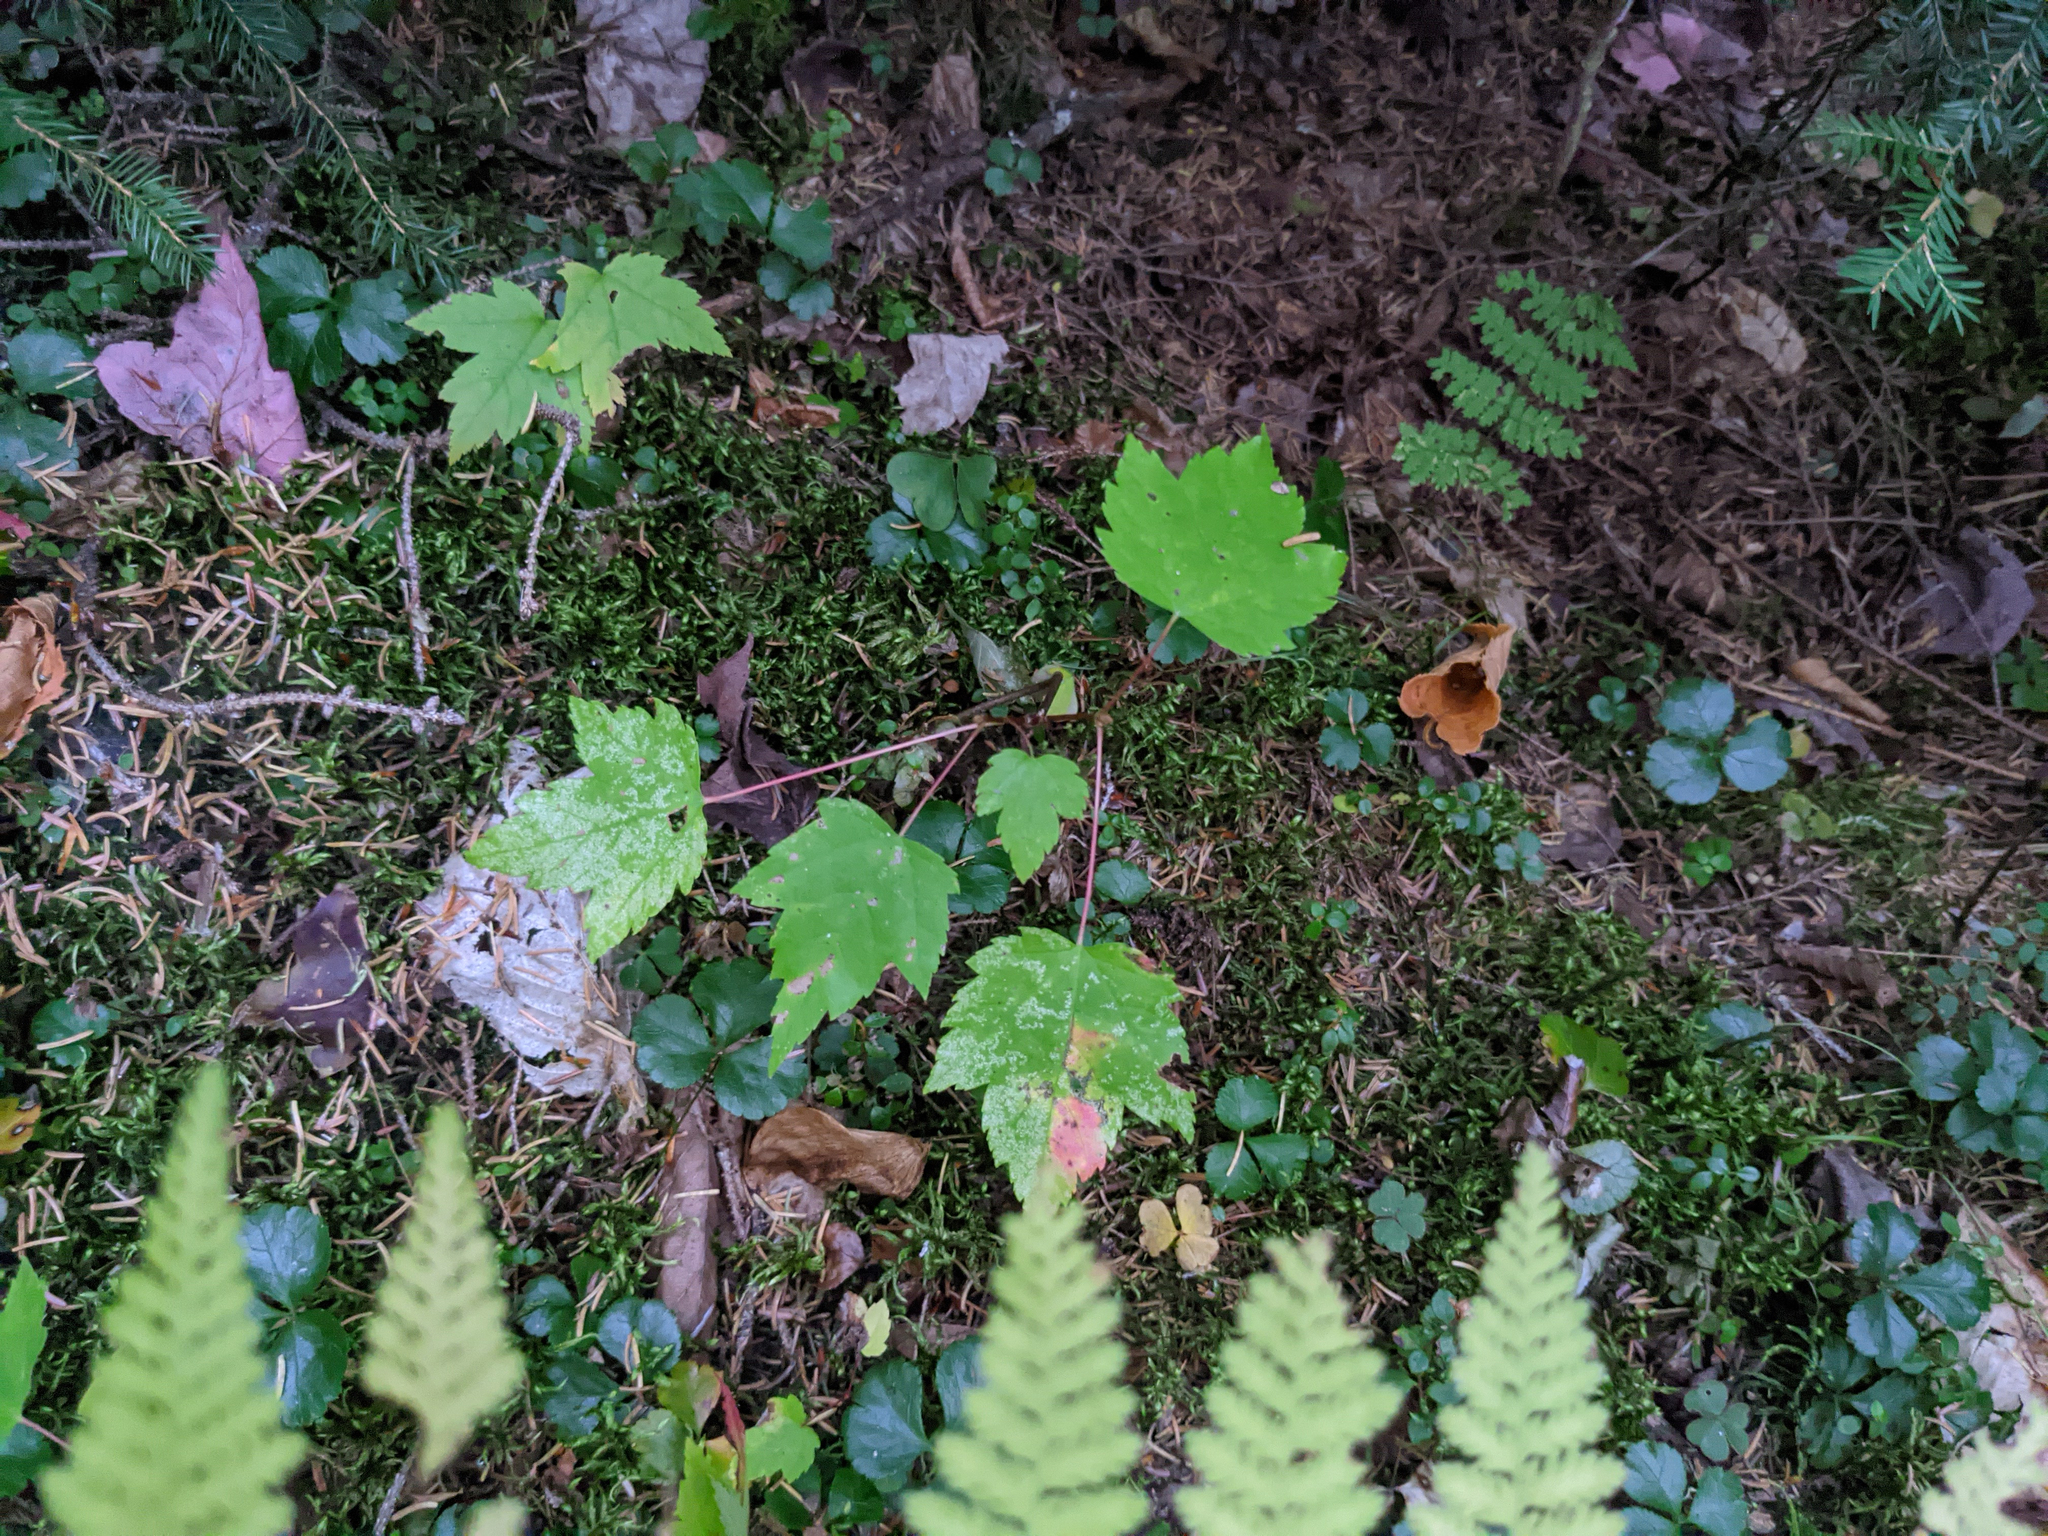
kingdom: Plantae
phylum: Tracheophyta
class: Magnoliopsida
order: Sapindales
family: Sapindaceae
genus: Acer
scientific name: Acer rubrum
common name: Red maple
